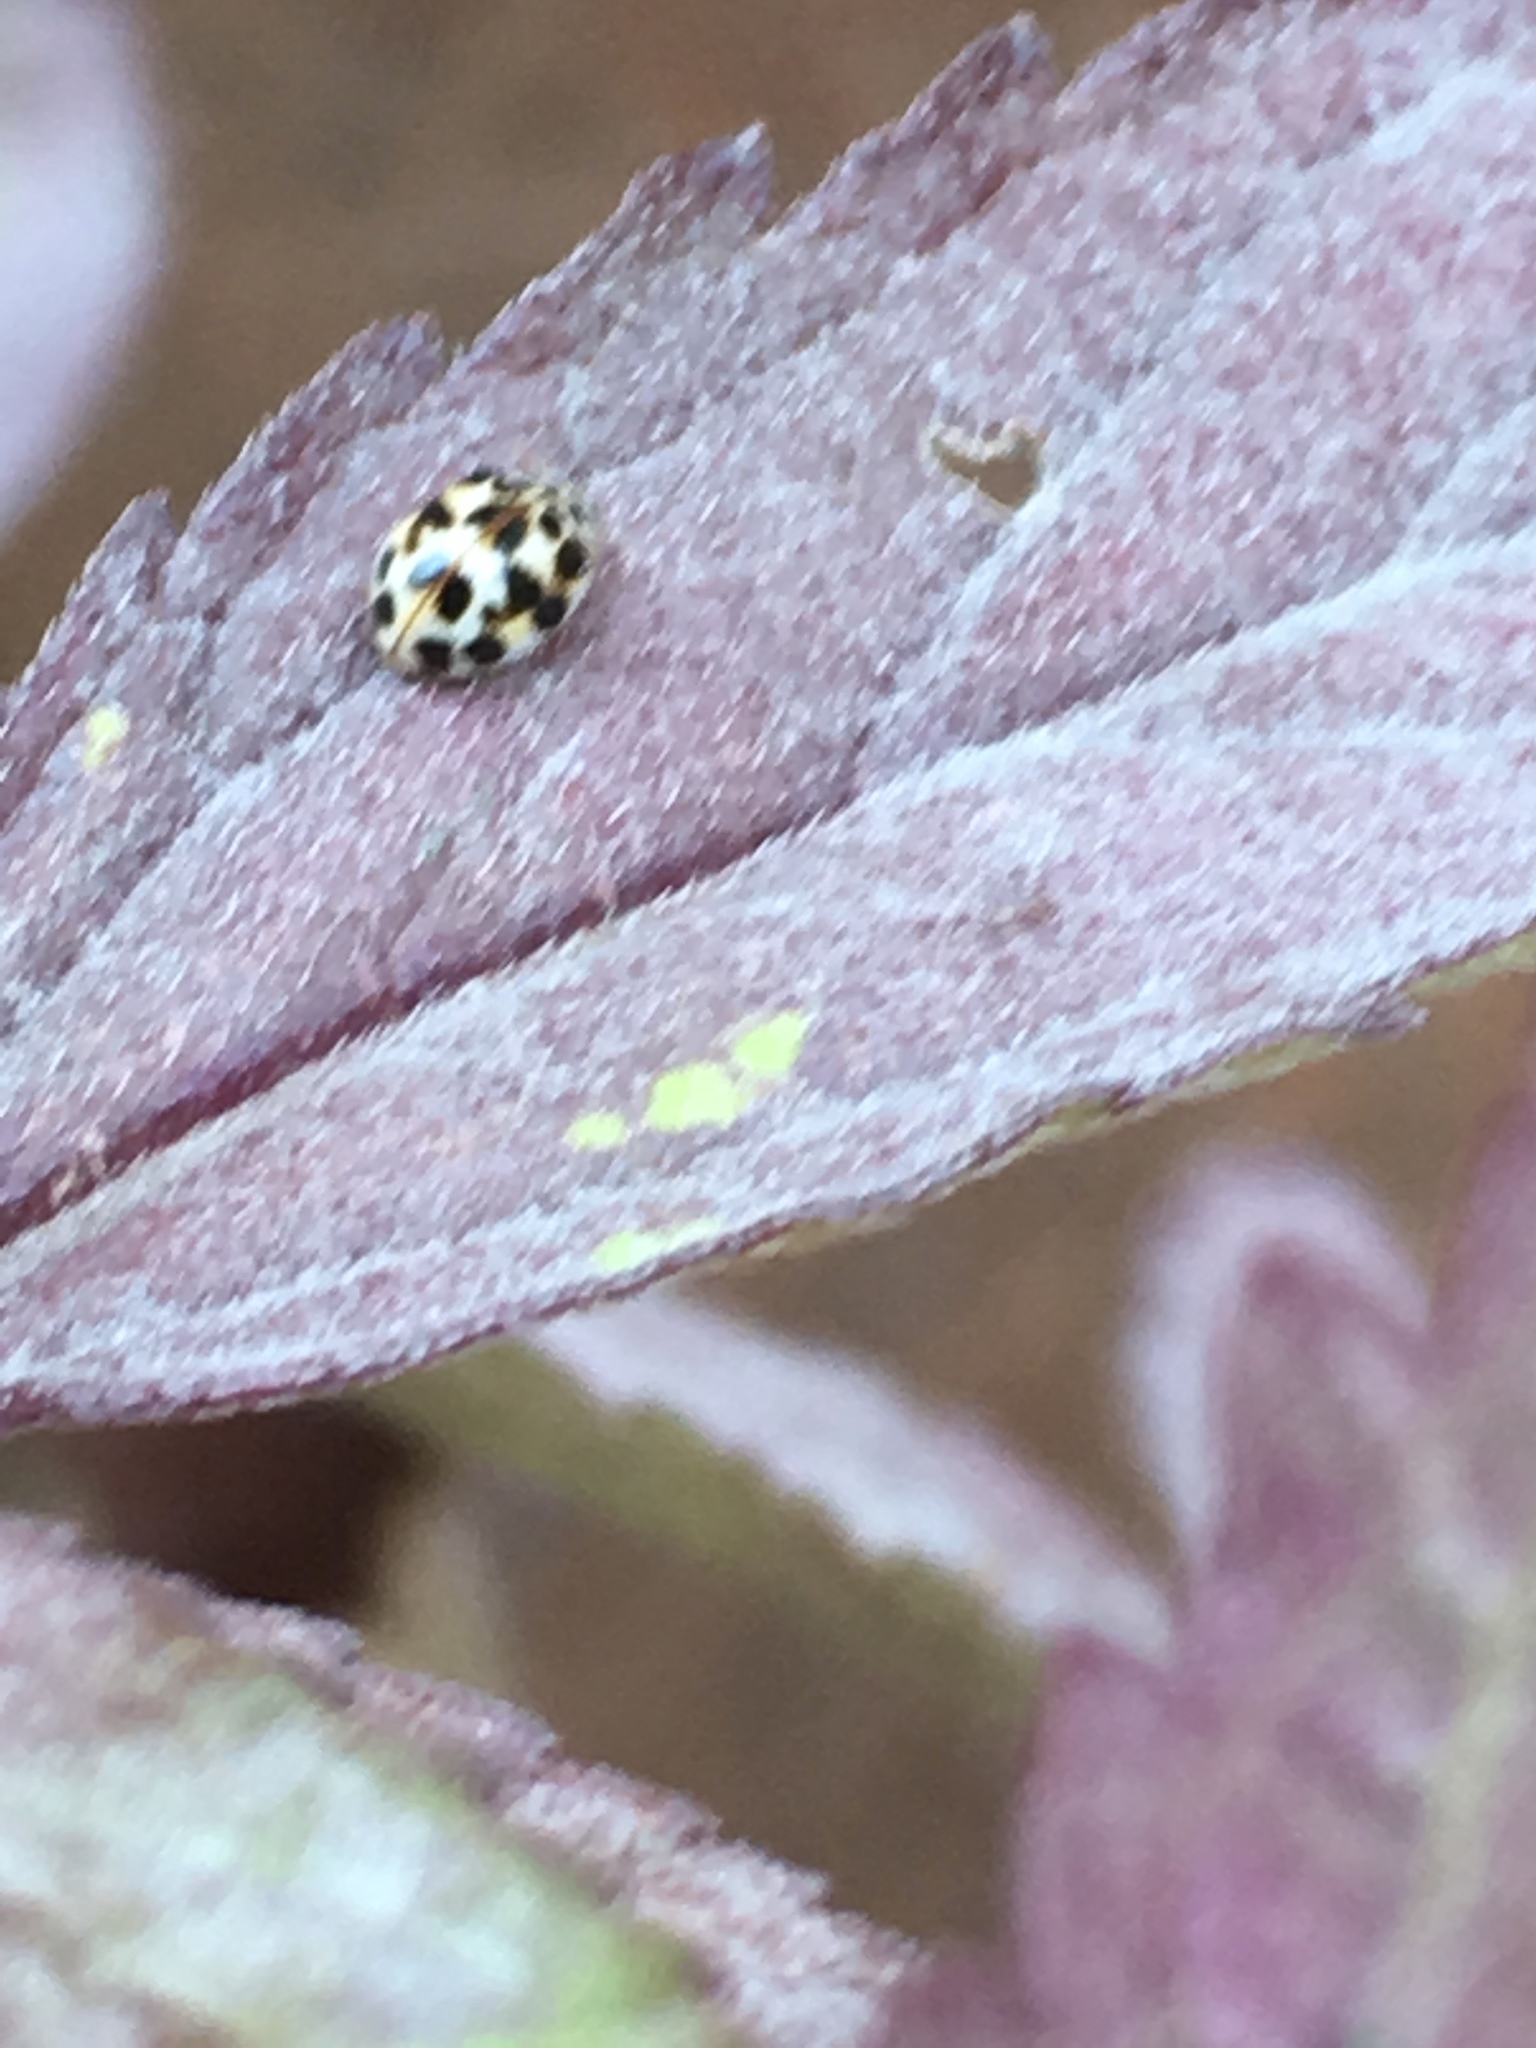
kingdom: Animalia
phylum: Arthropoda
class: Insecta
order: Coleoptera
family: Coccinellidae
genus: Psyllobora
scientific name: Psyllobora vigintimaculata
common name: Ladybird beetle
